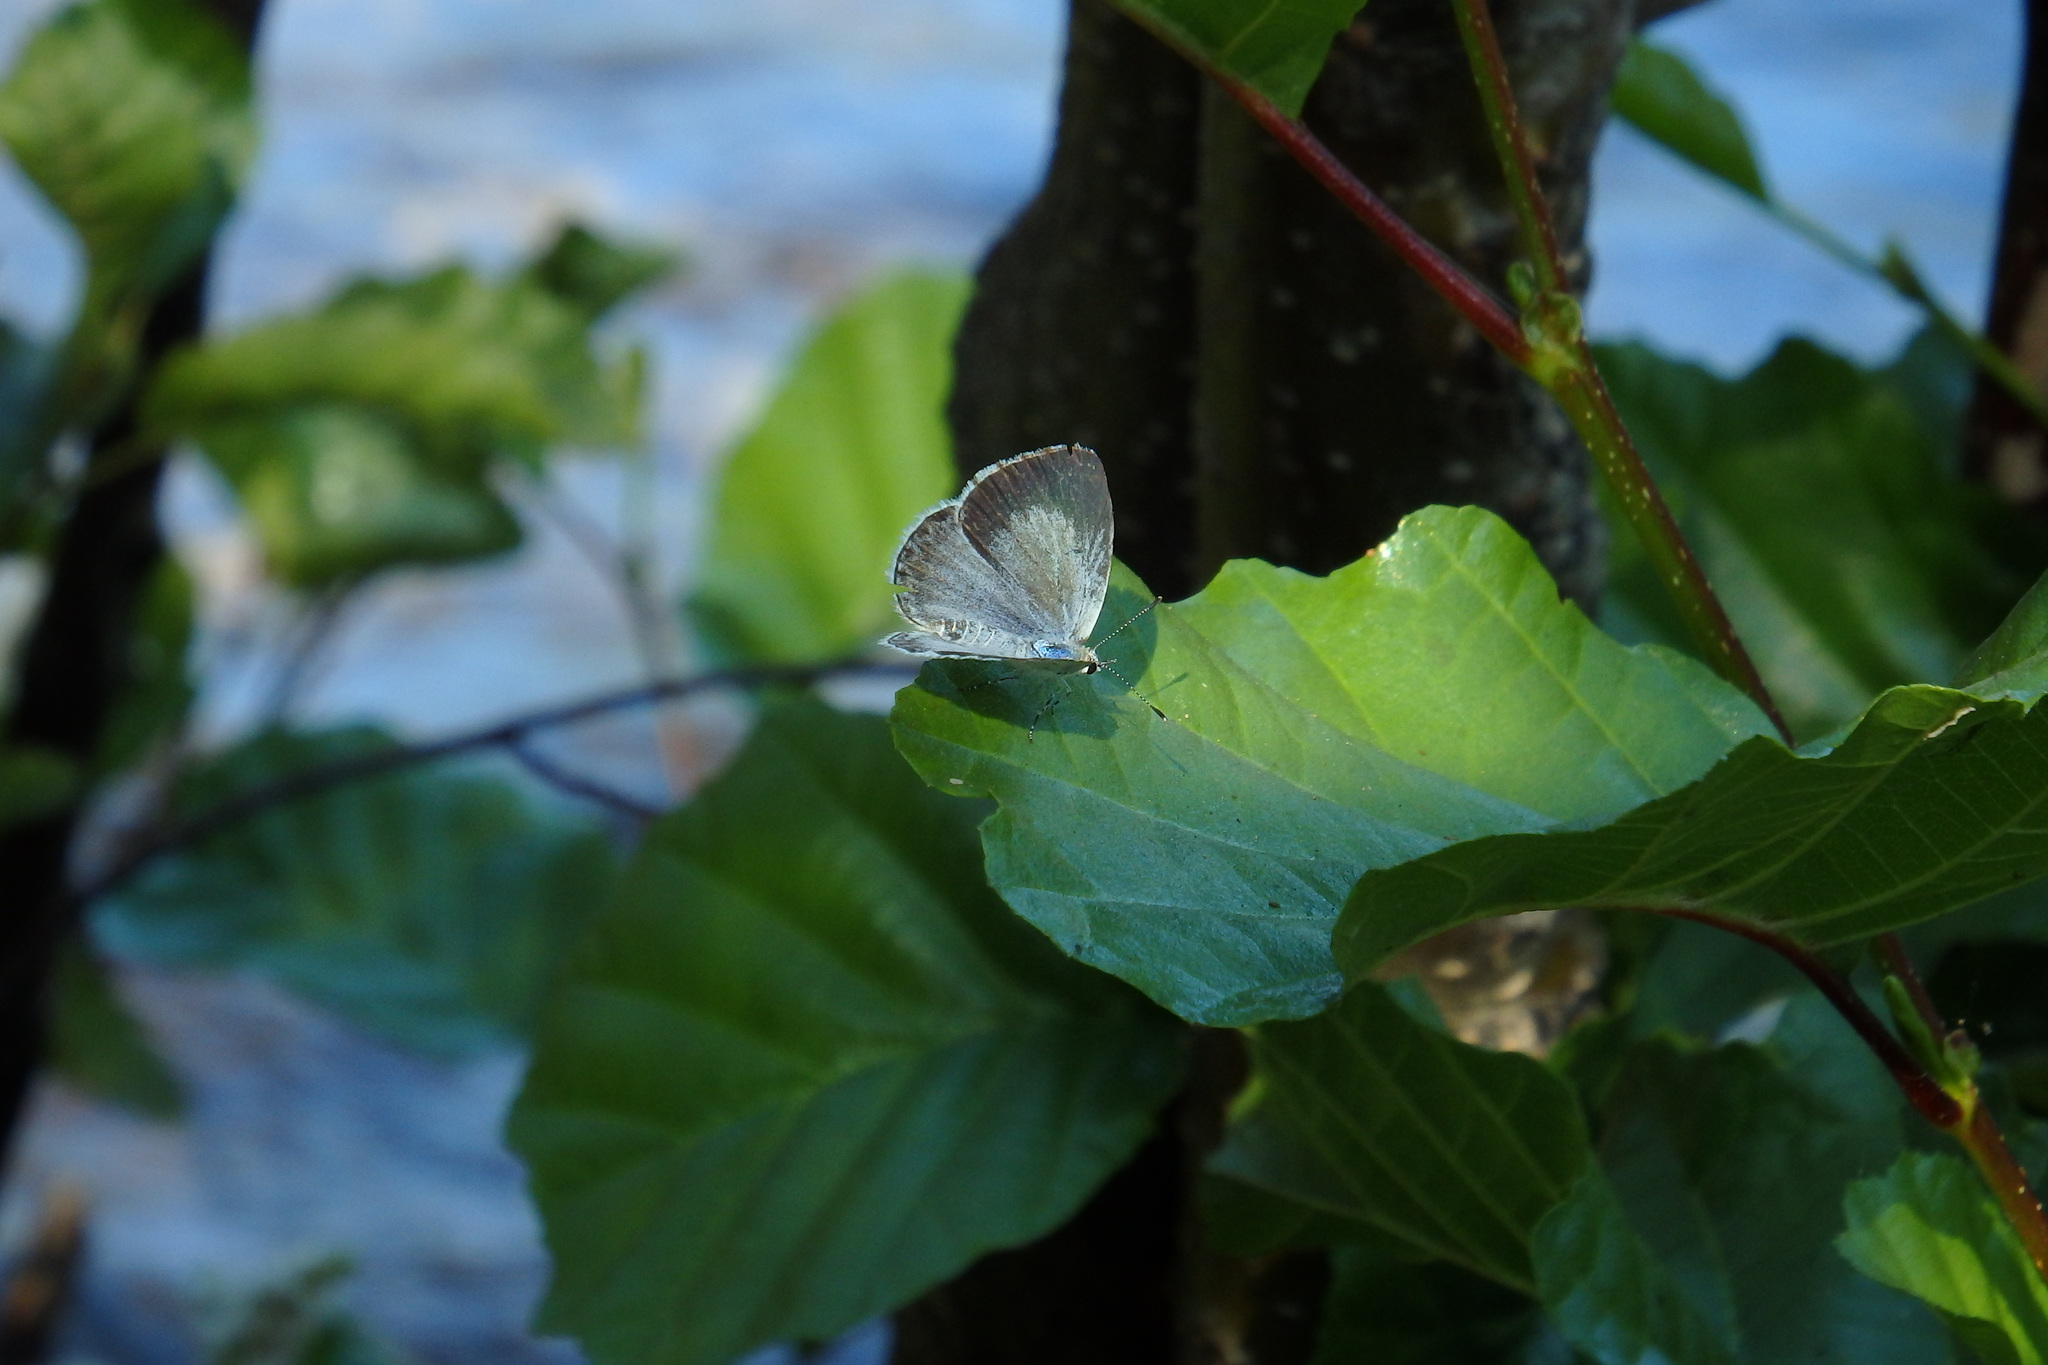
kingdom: Animalia
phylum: Arthropoda
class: Insecta
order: Lepidoptera
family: Lycaenidae
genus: Celastrina
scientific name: Celastrina argiolus
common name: Holly blue
